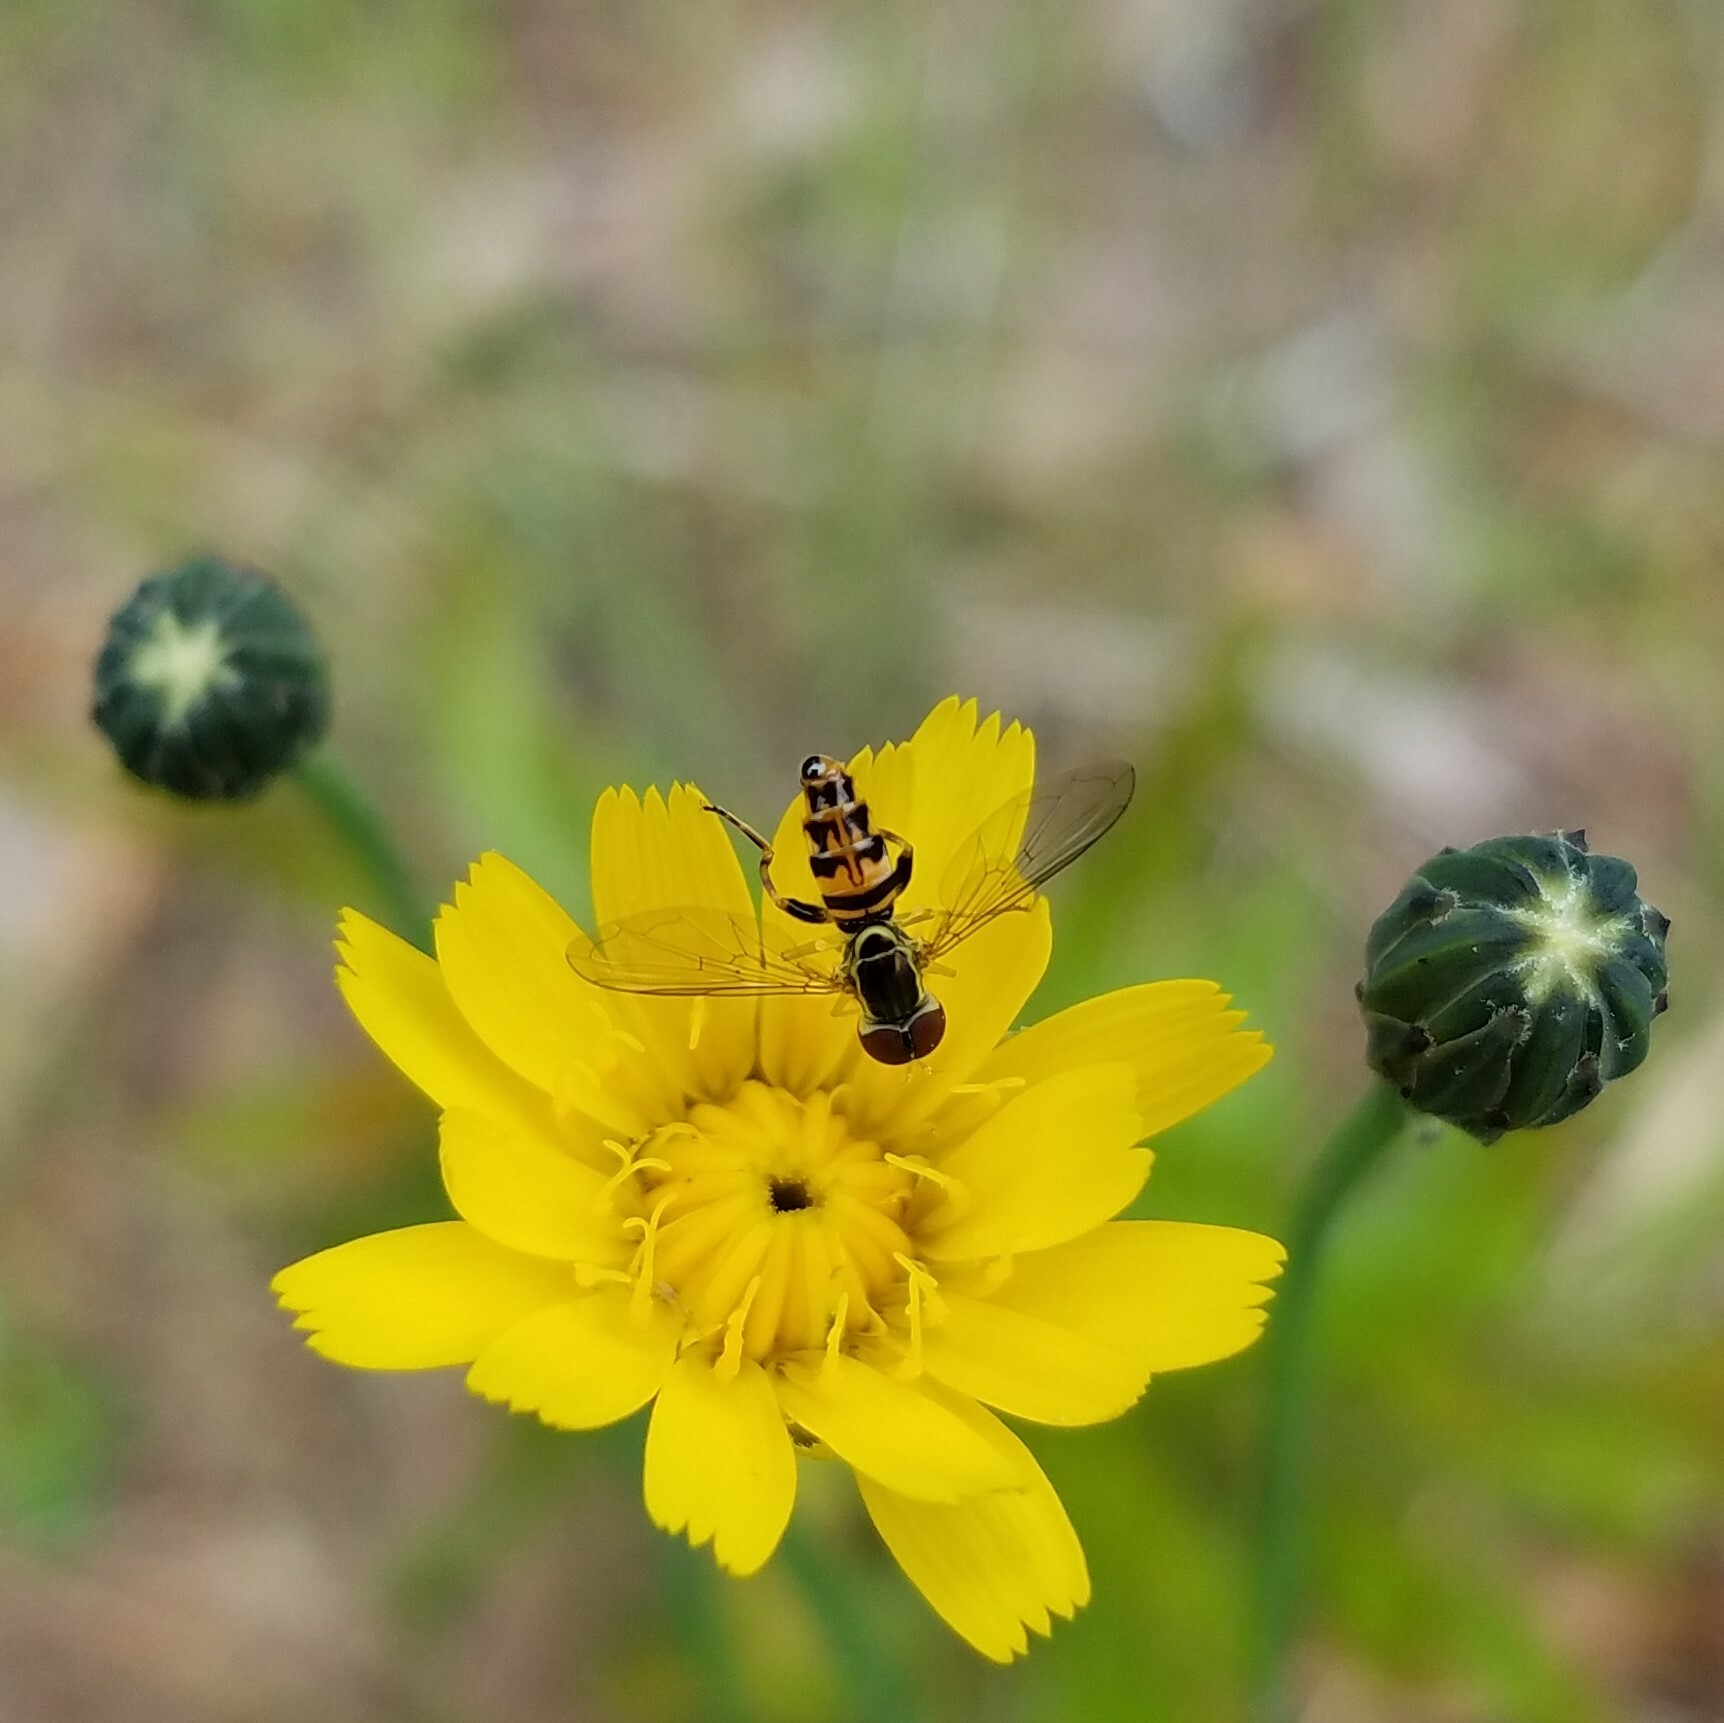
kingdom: Animalia
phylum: Arthropoda
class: Insecta
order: Diptera
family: Syrphidae
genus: Toxomerus
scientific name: Toxomerus geminatus
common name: Eastern calligrapher
